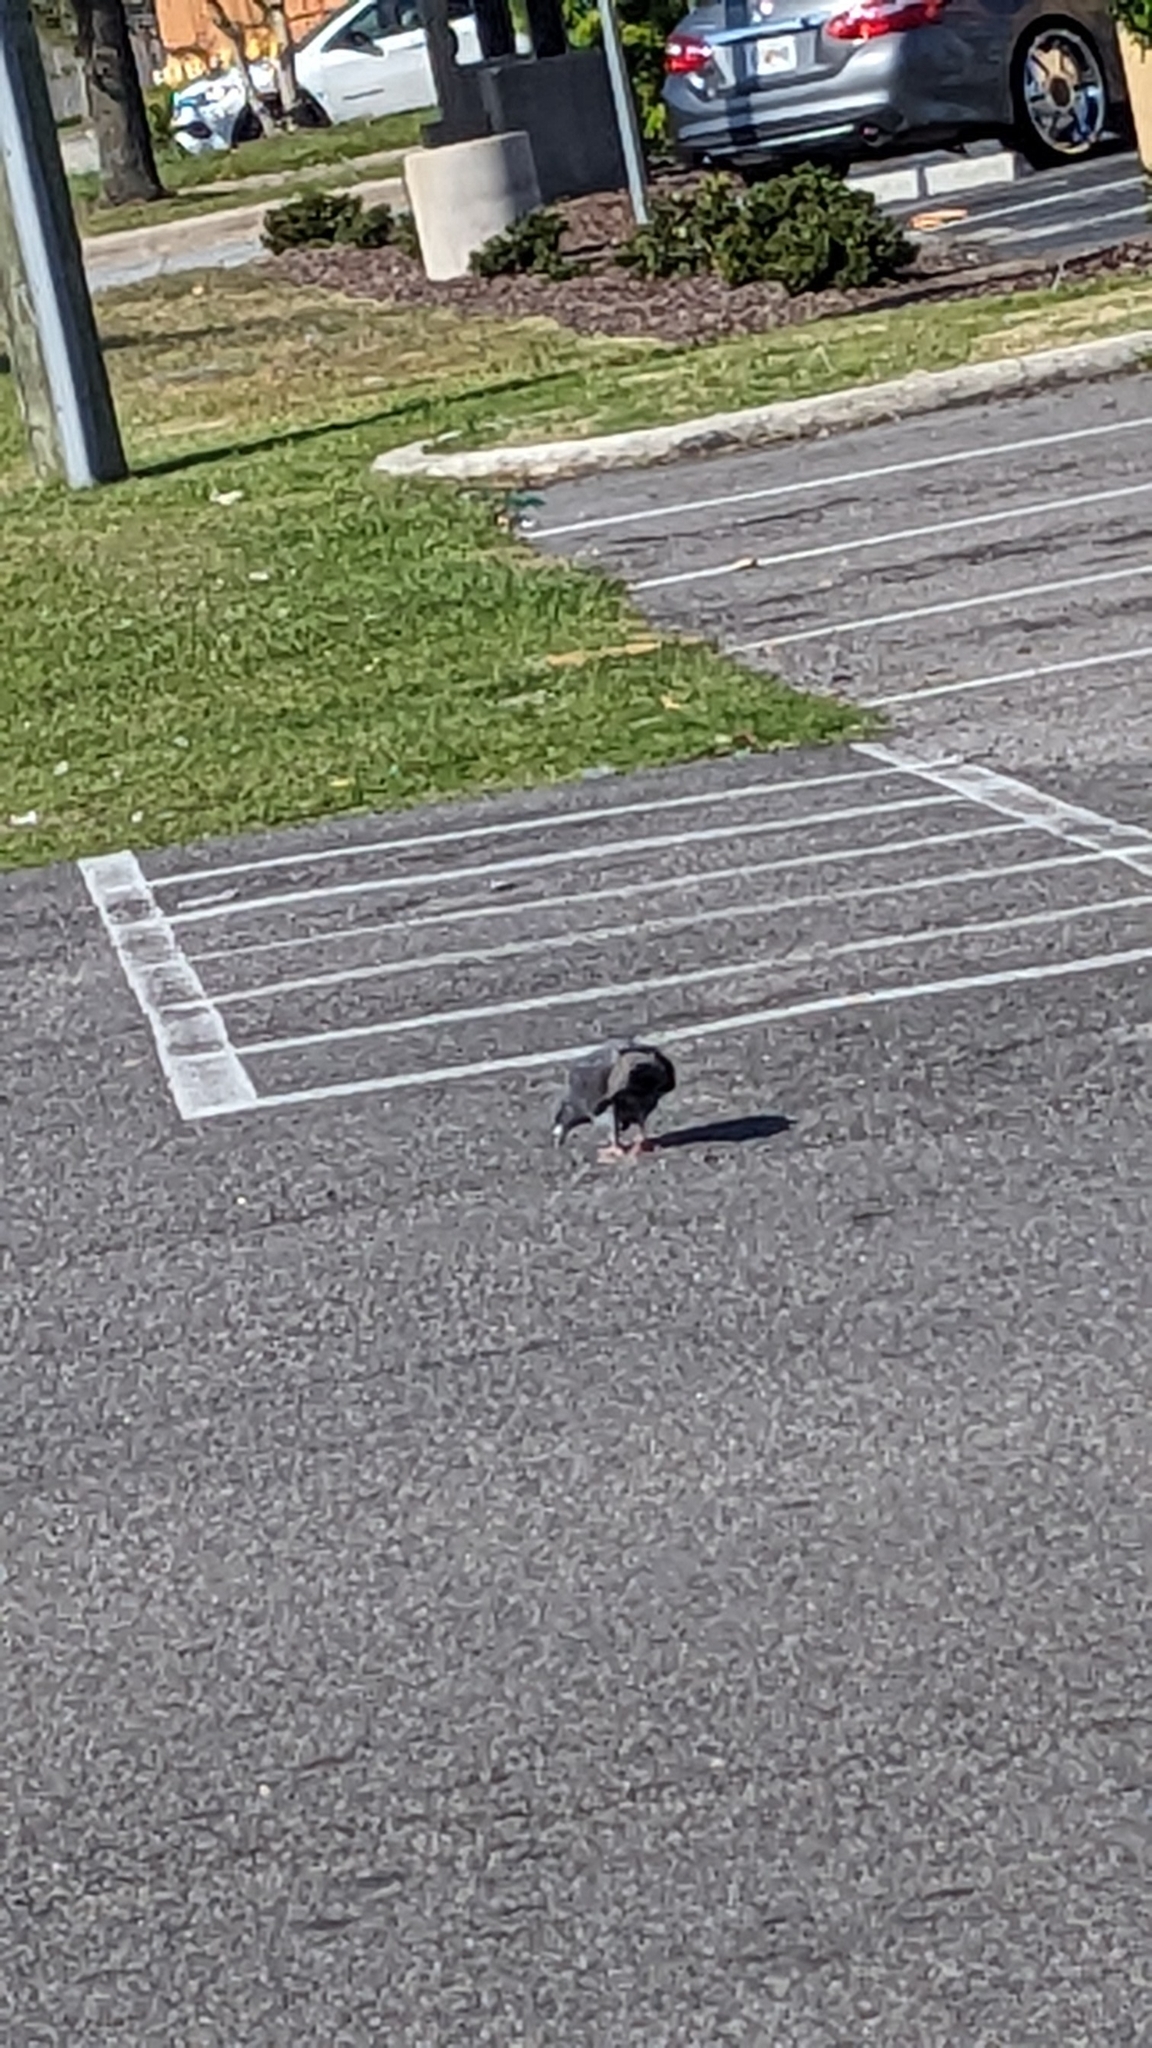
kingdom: Animalia
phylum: Chordata
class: Aves
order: Columbiformes
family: Columbidae
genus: Columba
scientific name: Columba livia
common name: Rock pigeon
